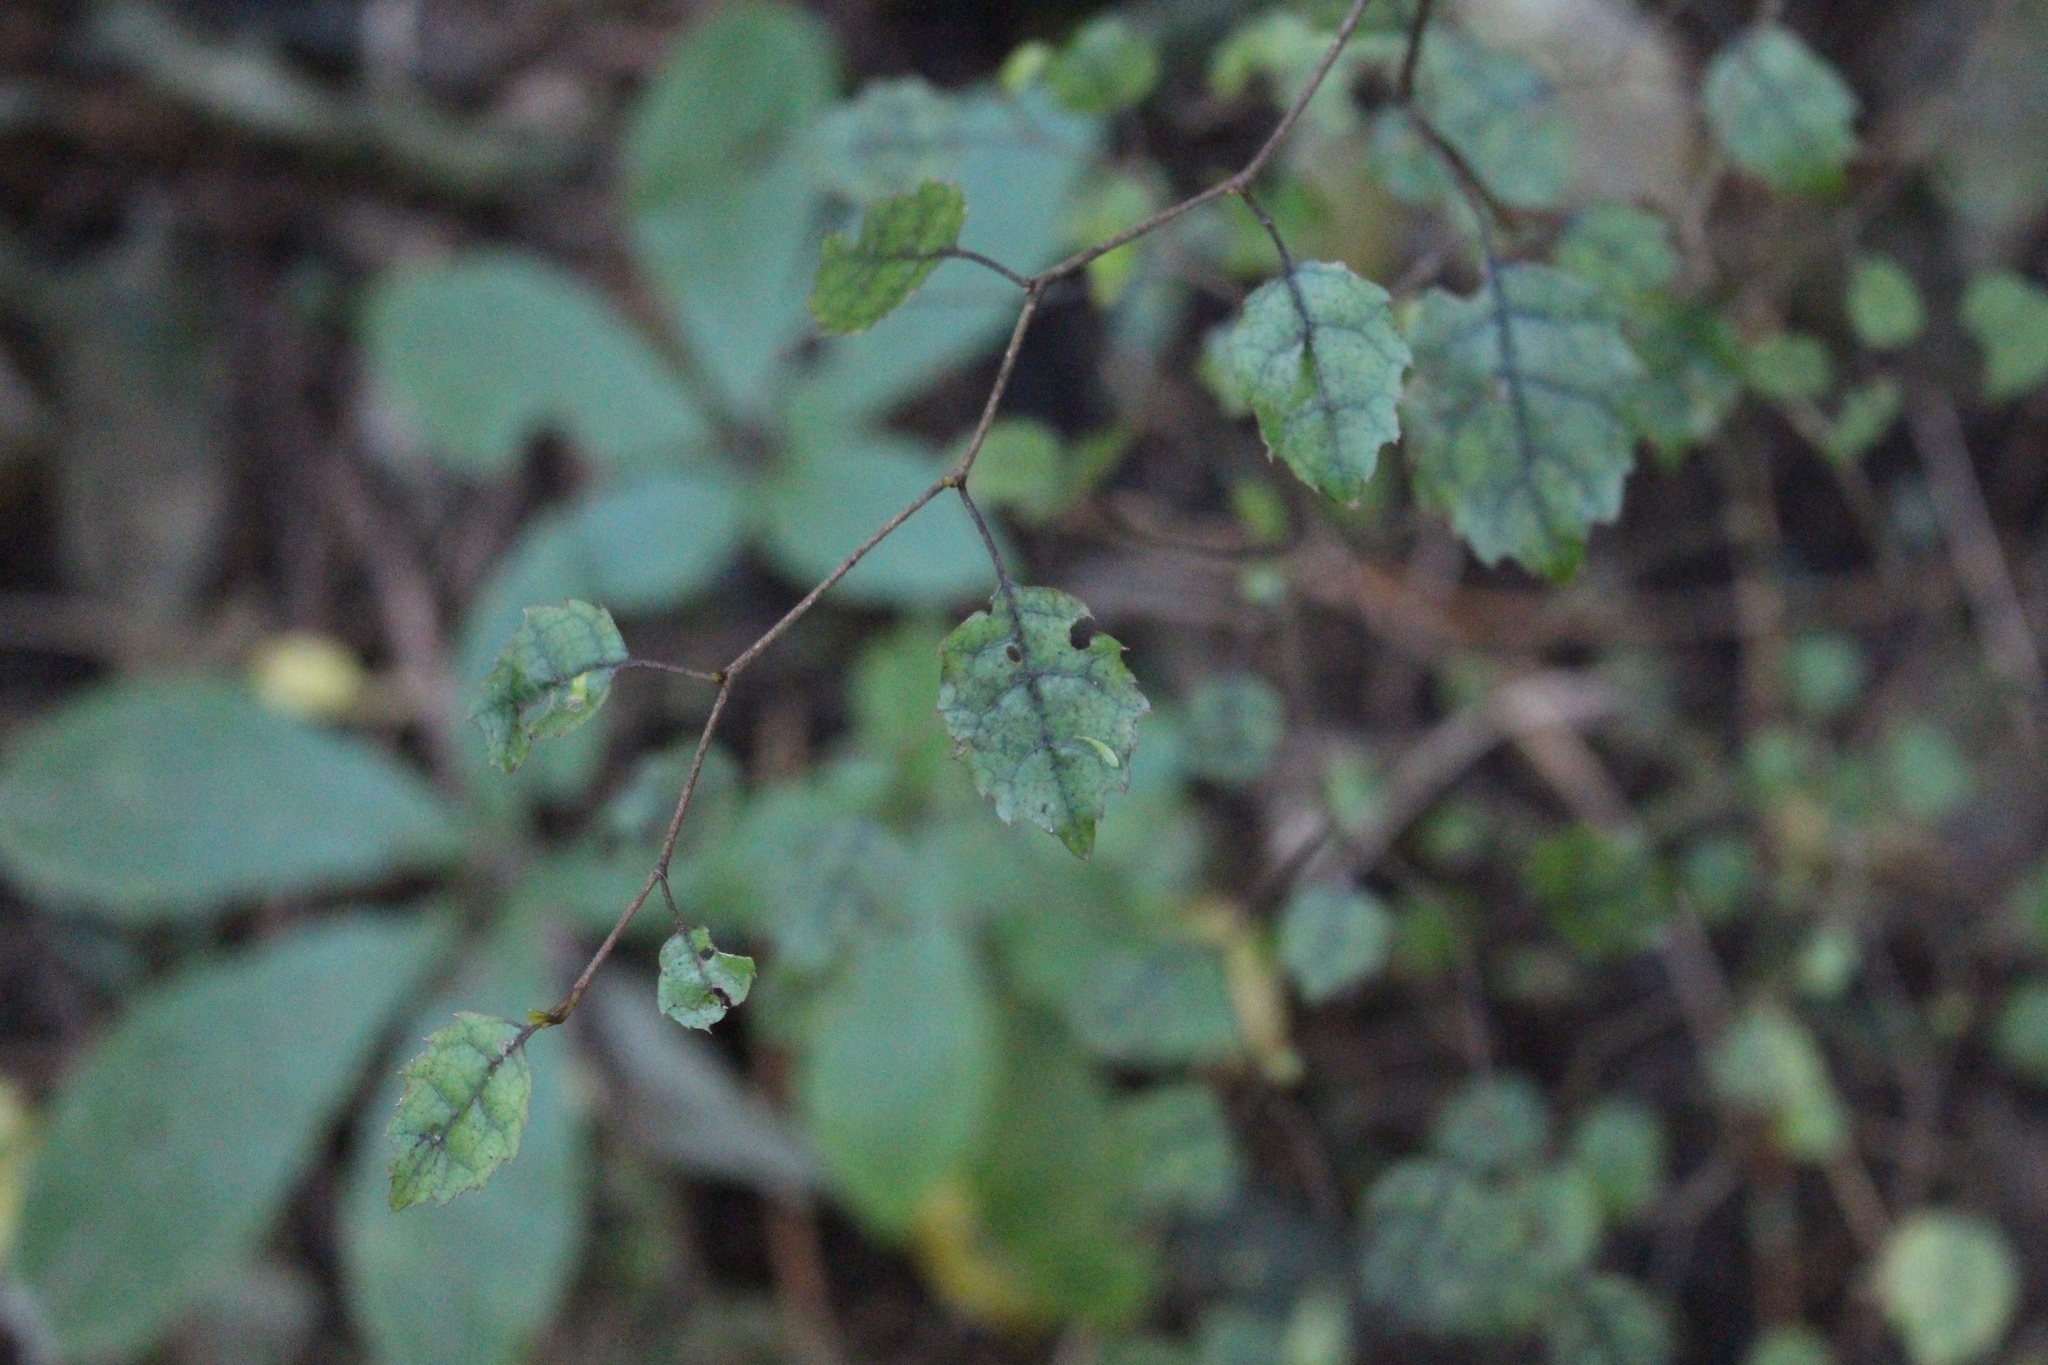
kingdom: Plantae
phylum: Tracheophyta
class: Magnoliopsida
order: Asterales
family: Rousseaceae
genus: Carpodetus
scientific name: Carpodetus serratus
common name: White mapau
